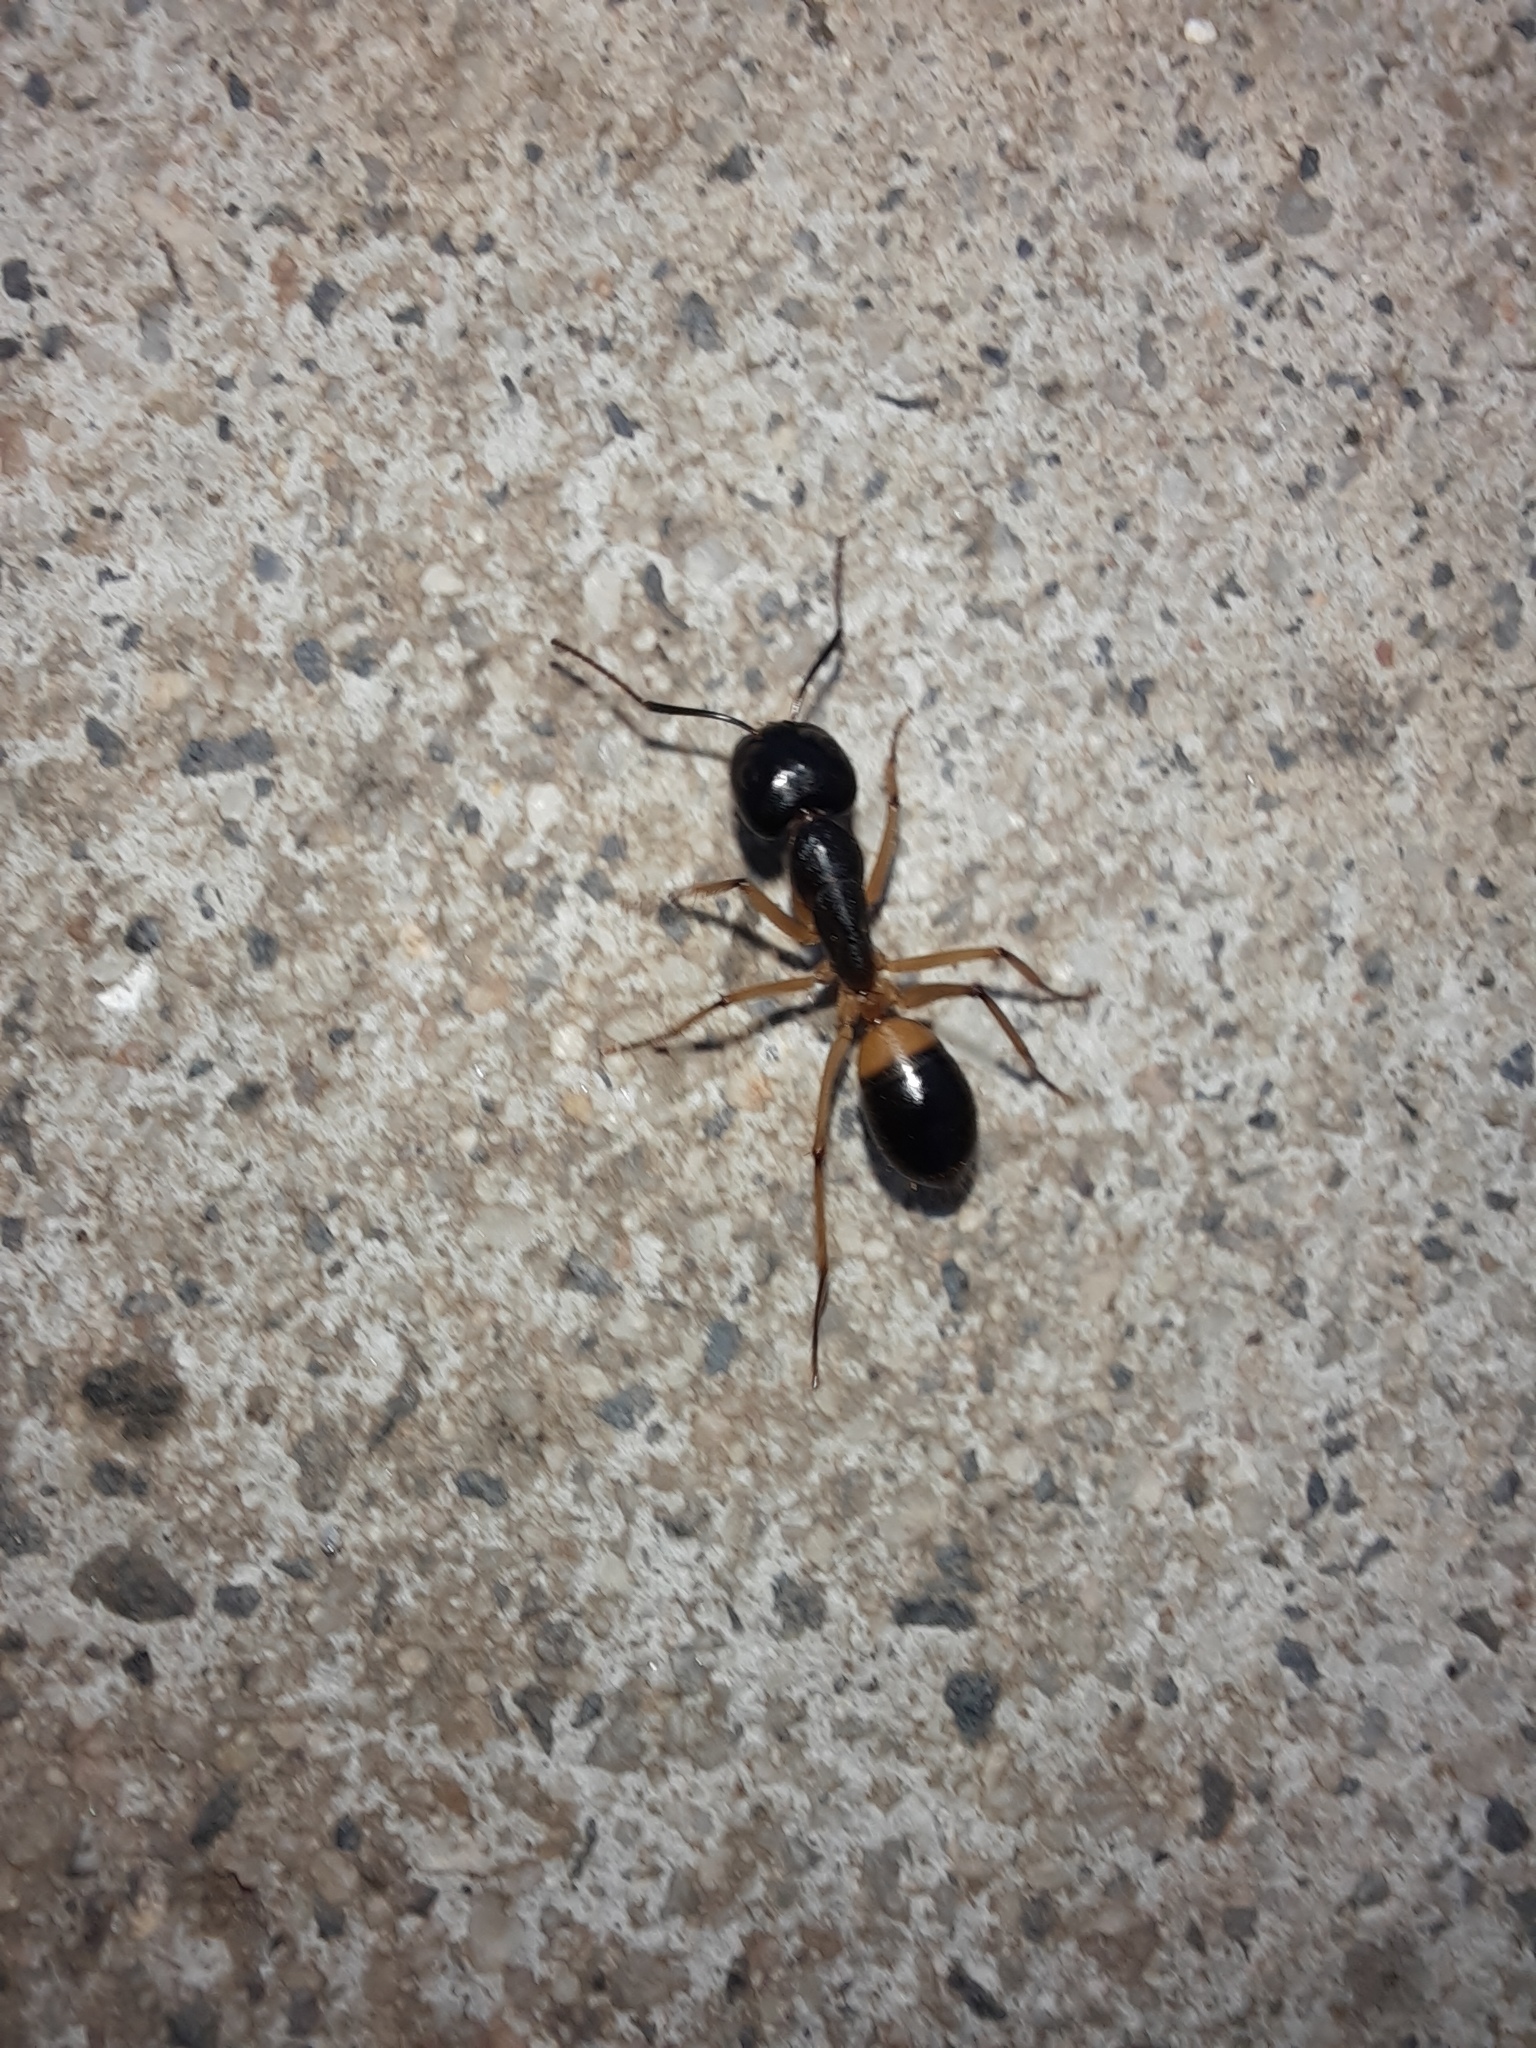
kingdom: Animalia
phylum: Arthropoda
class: Insecta
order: Hymenoptera
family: Formicidae
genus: Camponotus
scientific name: Camponotus consobrinus
